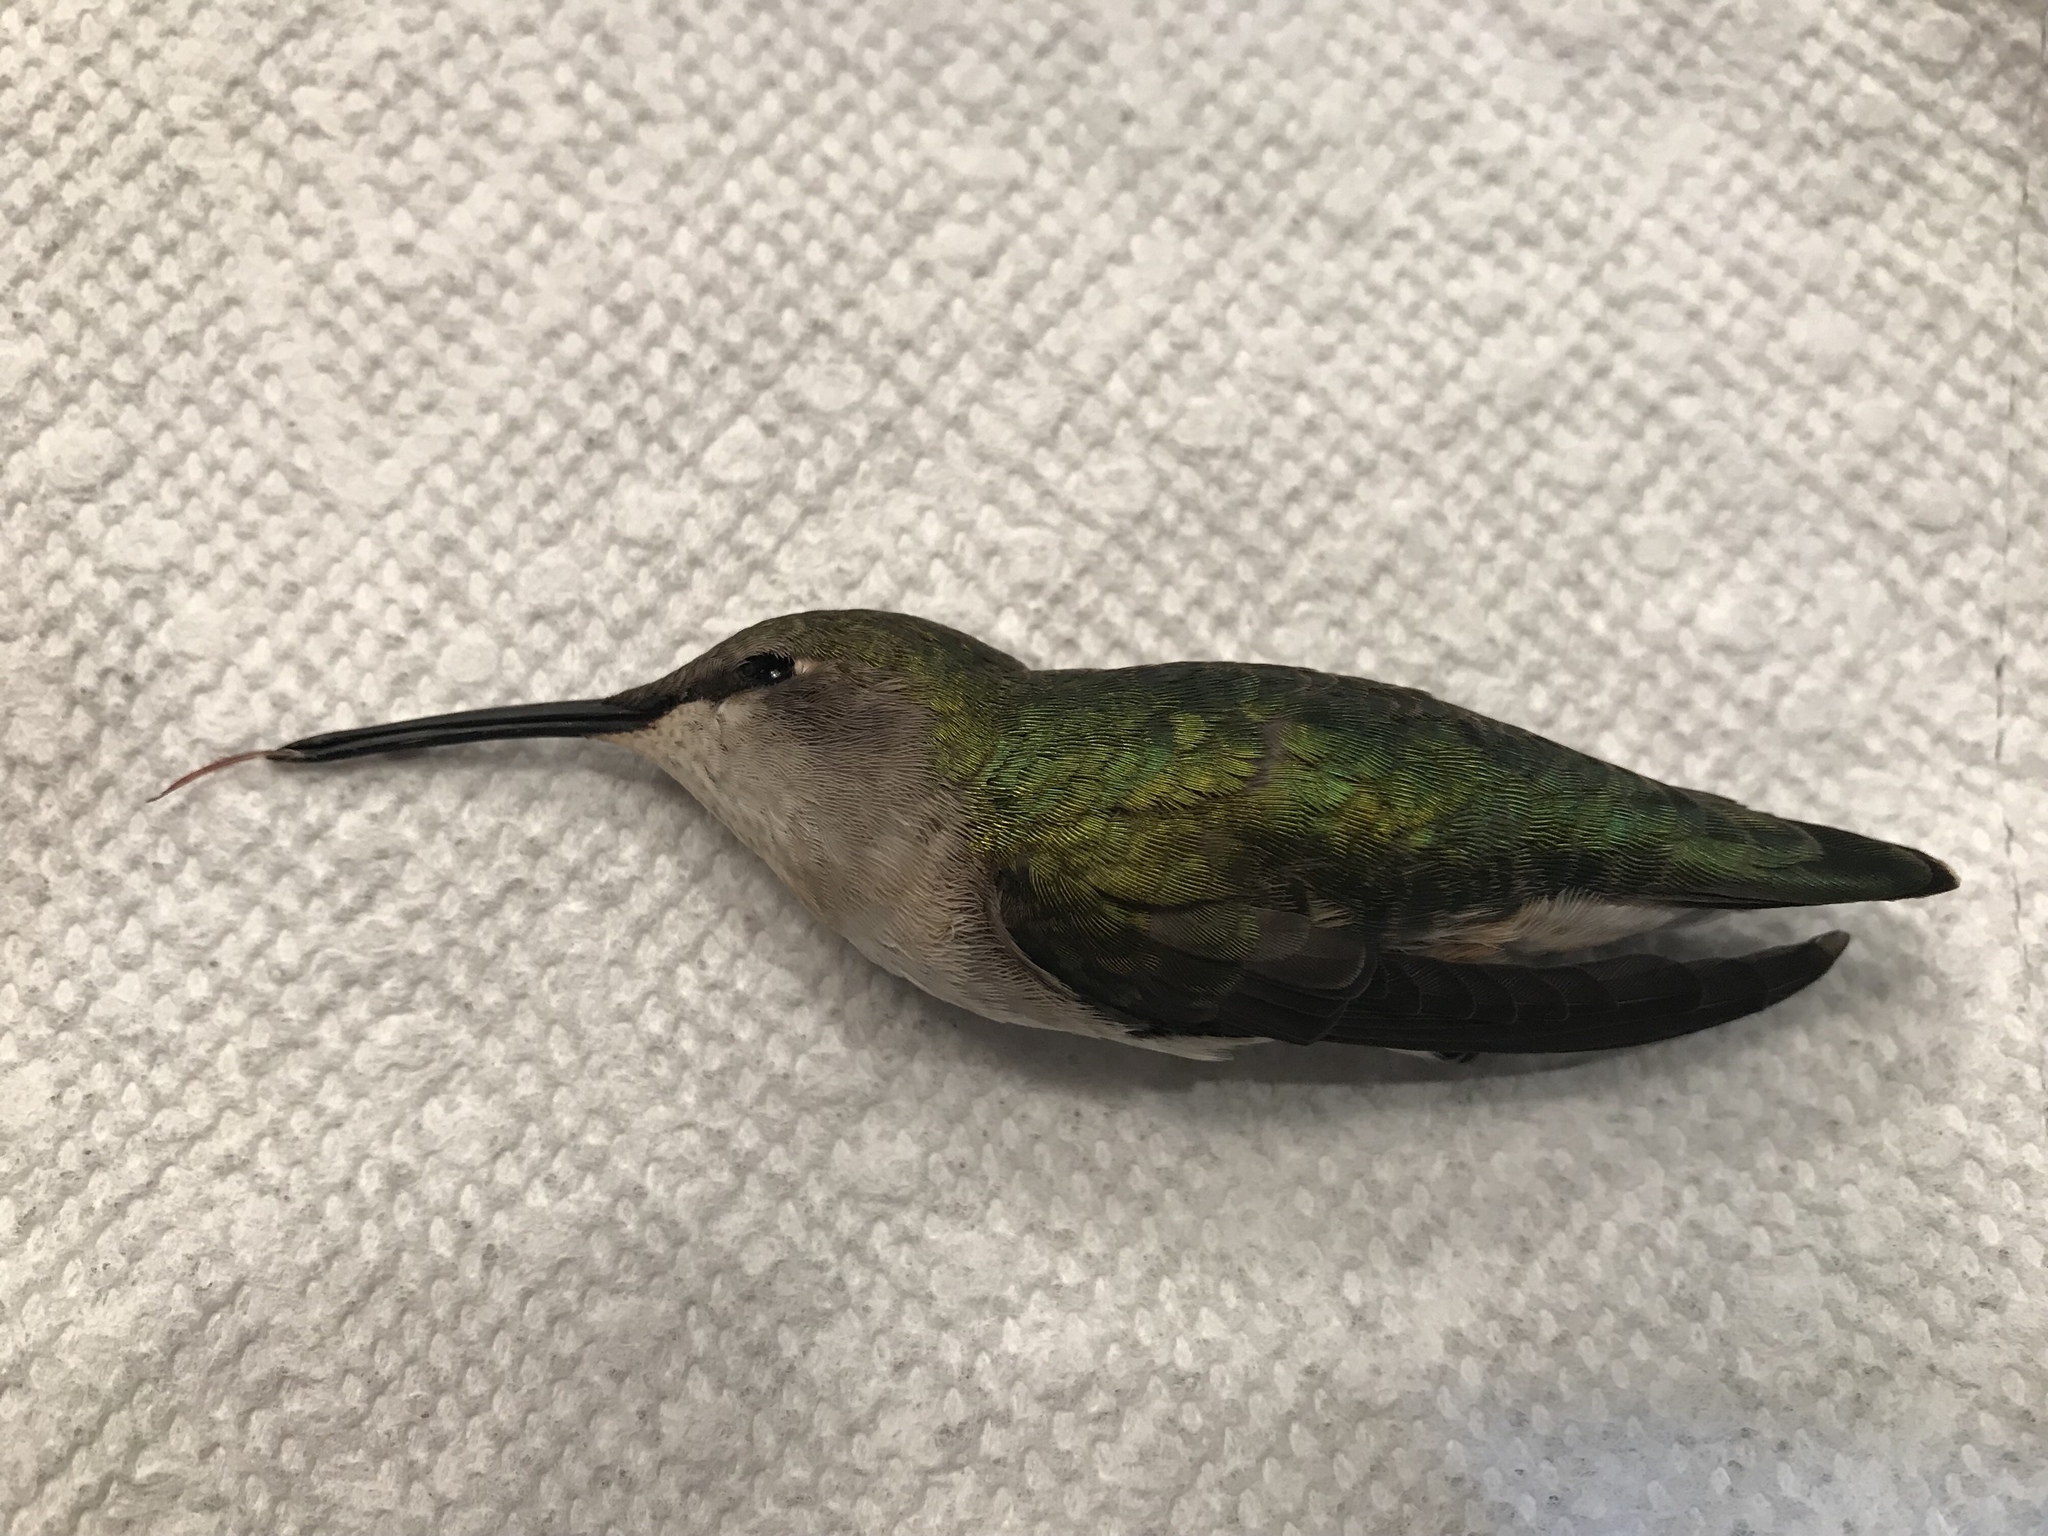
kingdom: Animalia
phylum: Chordata
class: Aves
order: Apodiformes
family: Trochilidae
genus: Archilochus
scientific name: Archilochus colubris
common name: Ruby-throated hummingbird
